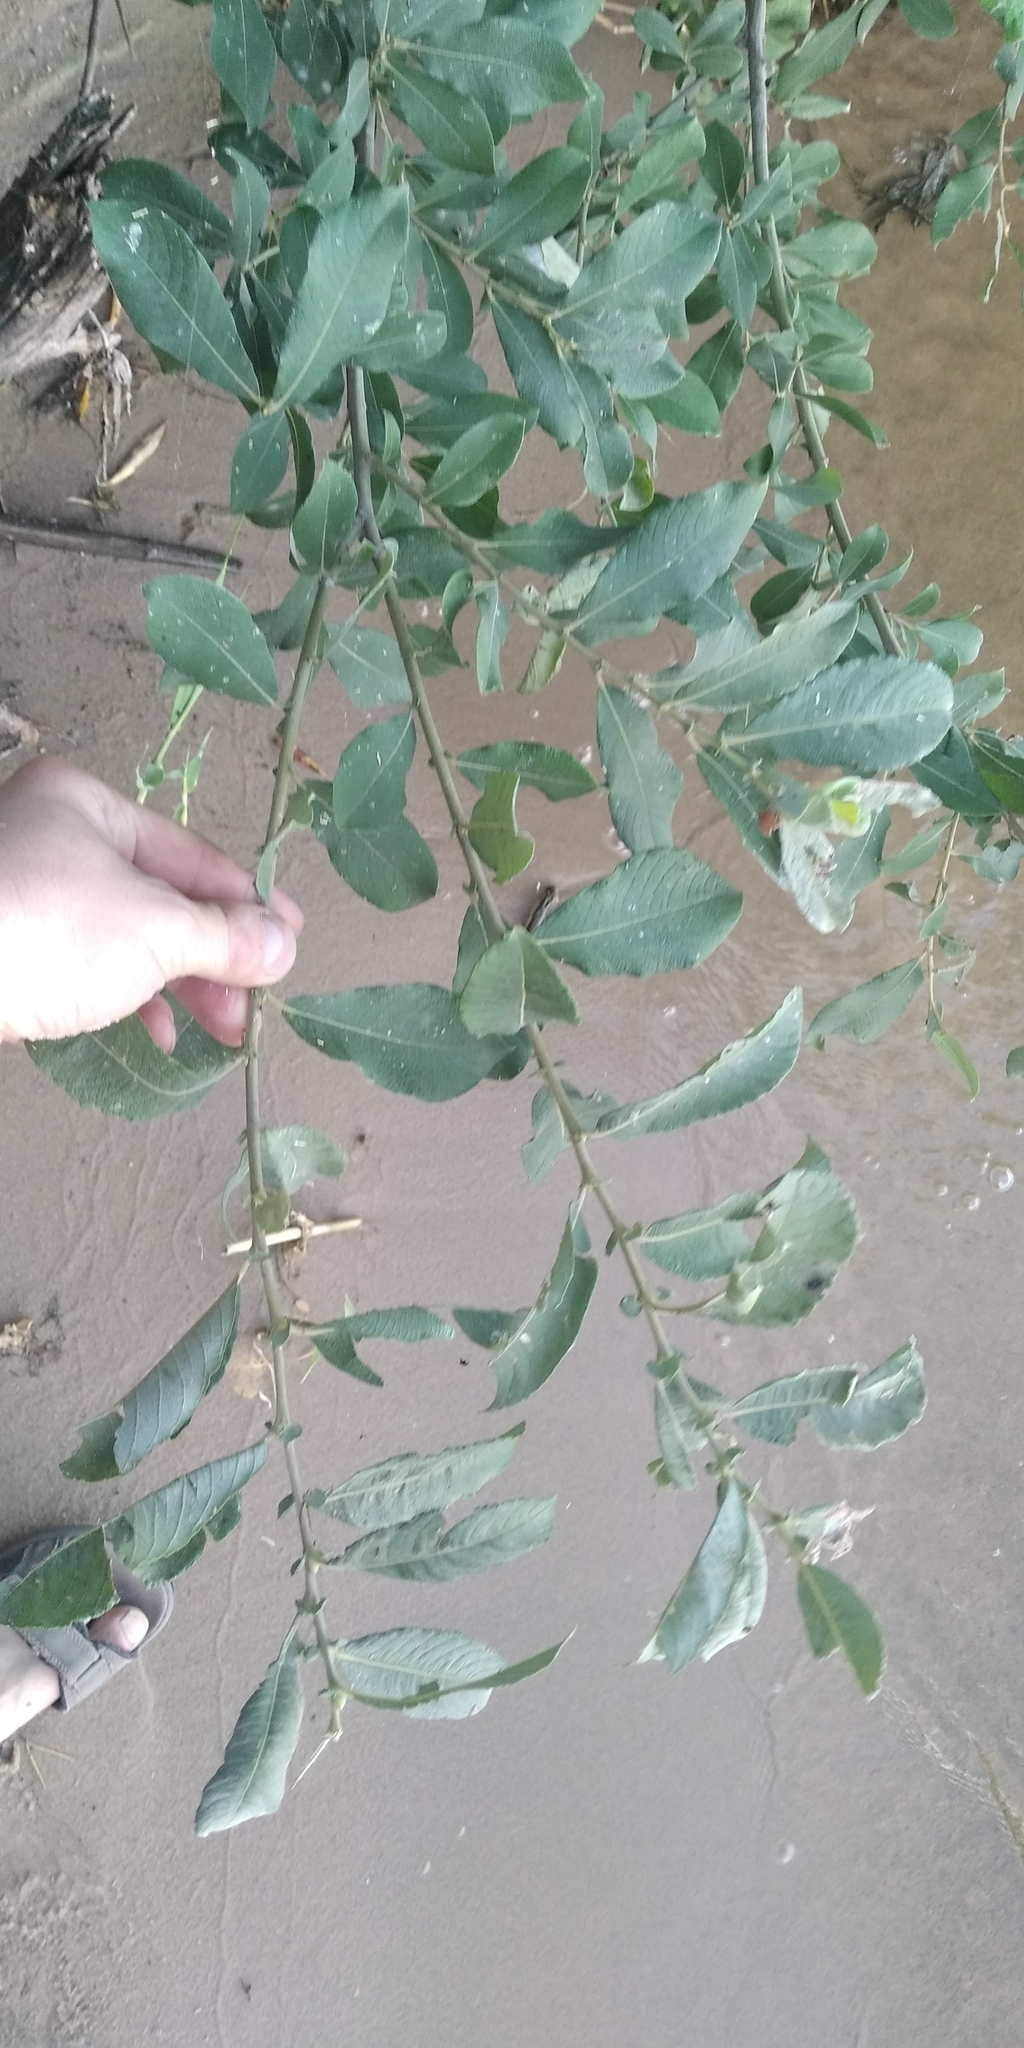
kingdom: Plantae
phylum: Tracheophyta
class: Magnoliopsida
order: Malpighiales
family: Salicaceae
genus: Salix
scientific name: Salix cinerea
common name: Common sallow
